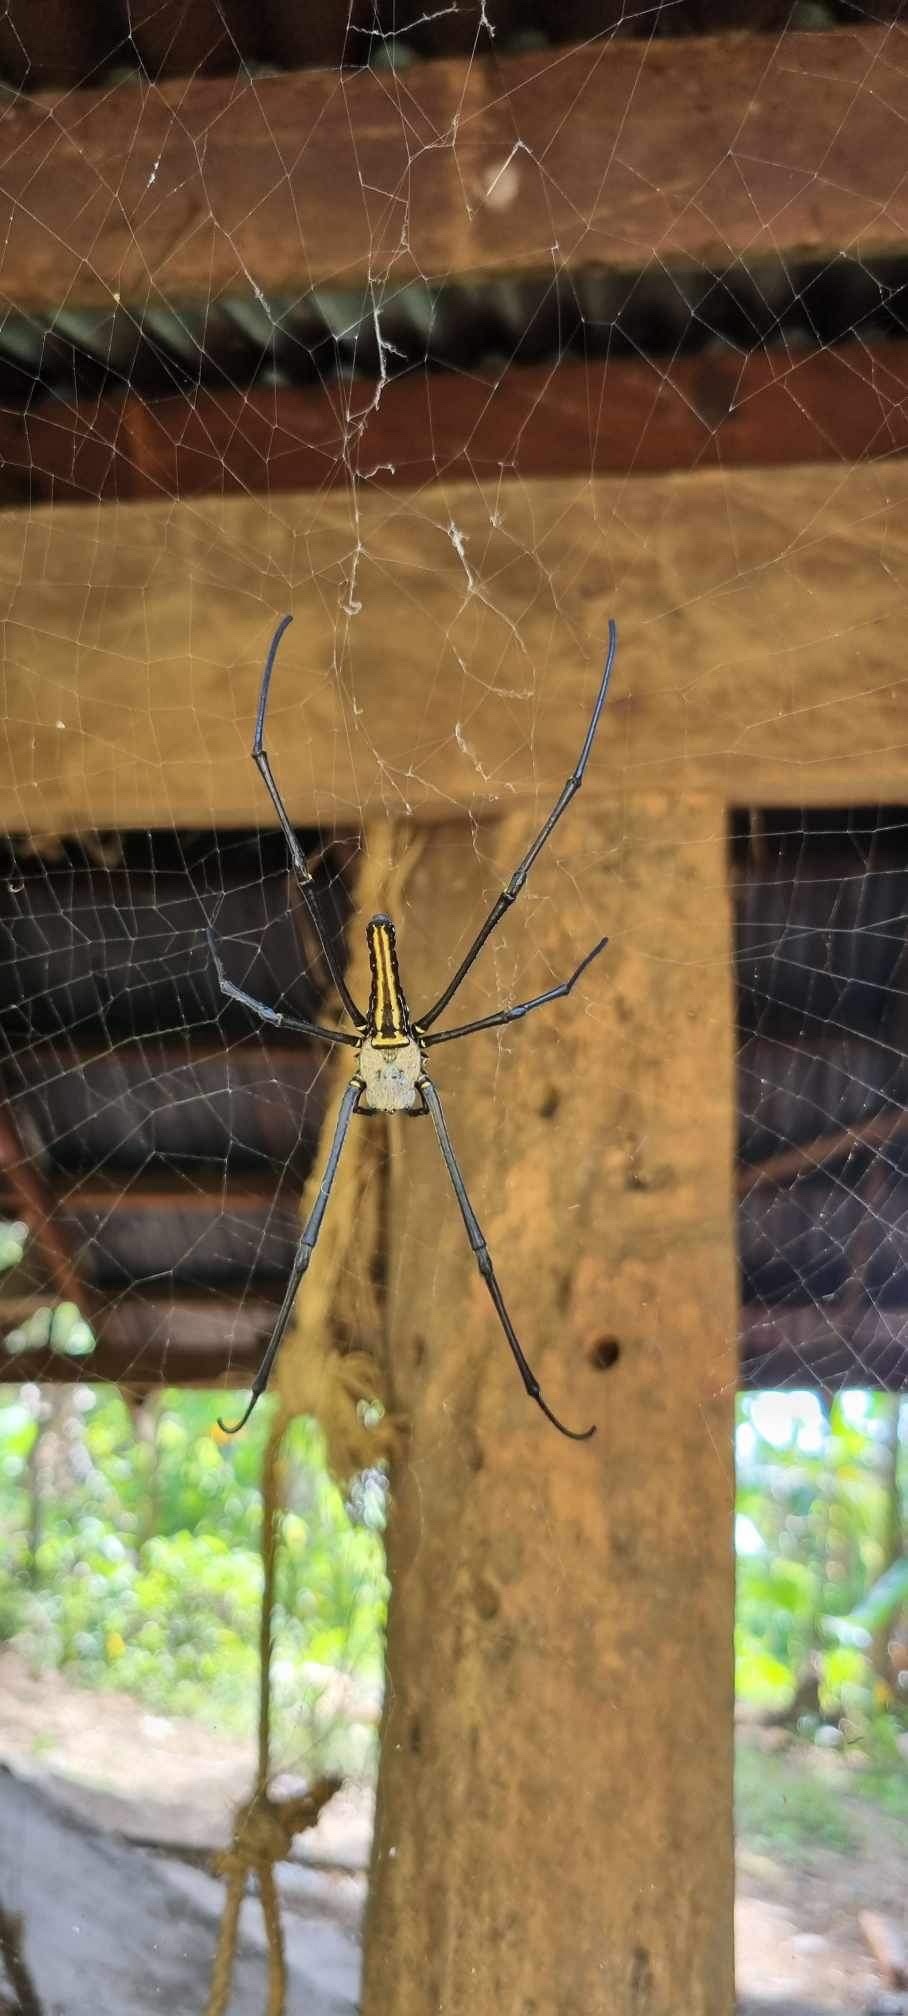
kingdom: Animalia
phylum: Arthropoda
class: Arachnida
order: Araneae
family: Araneidae
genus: Nephila
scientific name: Nephila pilipes
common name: Giant golden orb weaver
